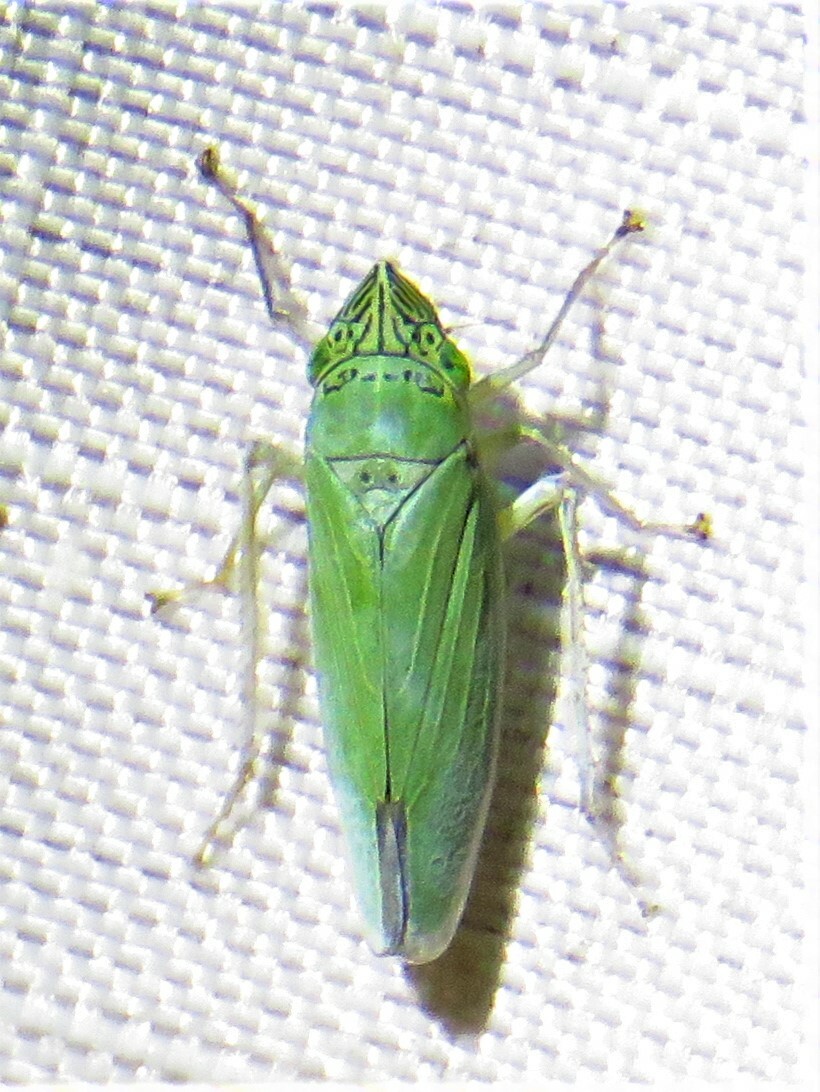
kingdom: Animalia
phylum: Arthropoda
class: Insecta
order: Hemiptera
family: Cicadellidae
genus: Draeculacephala
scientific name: Draeculacephala inscripta
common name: Leafhopper
